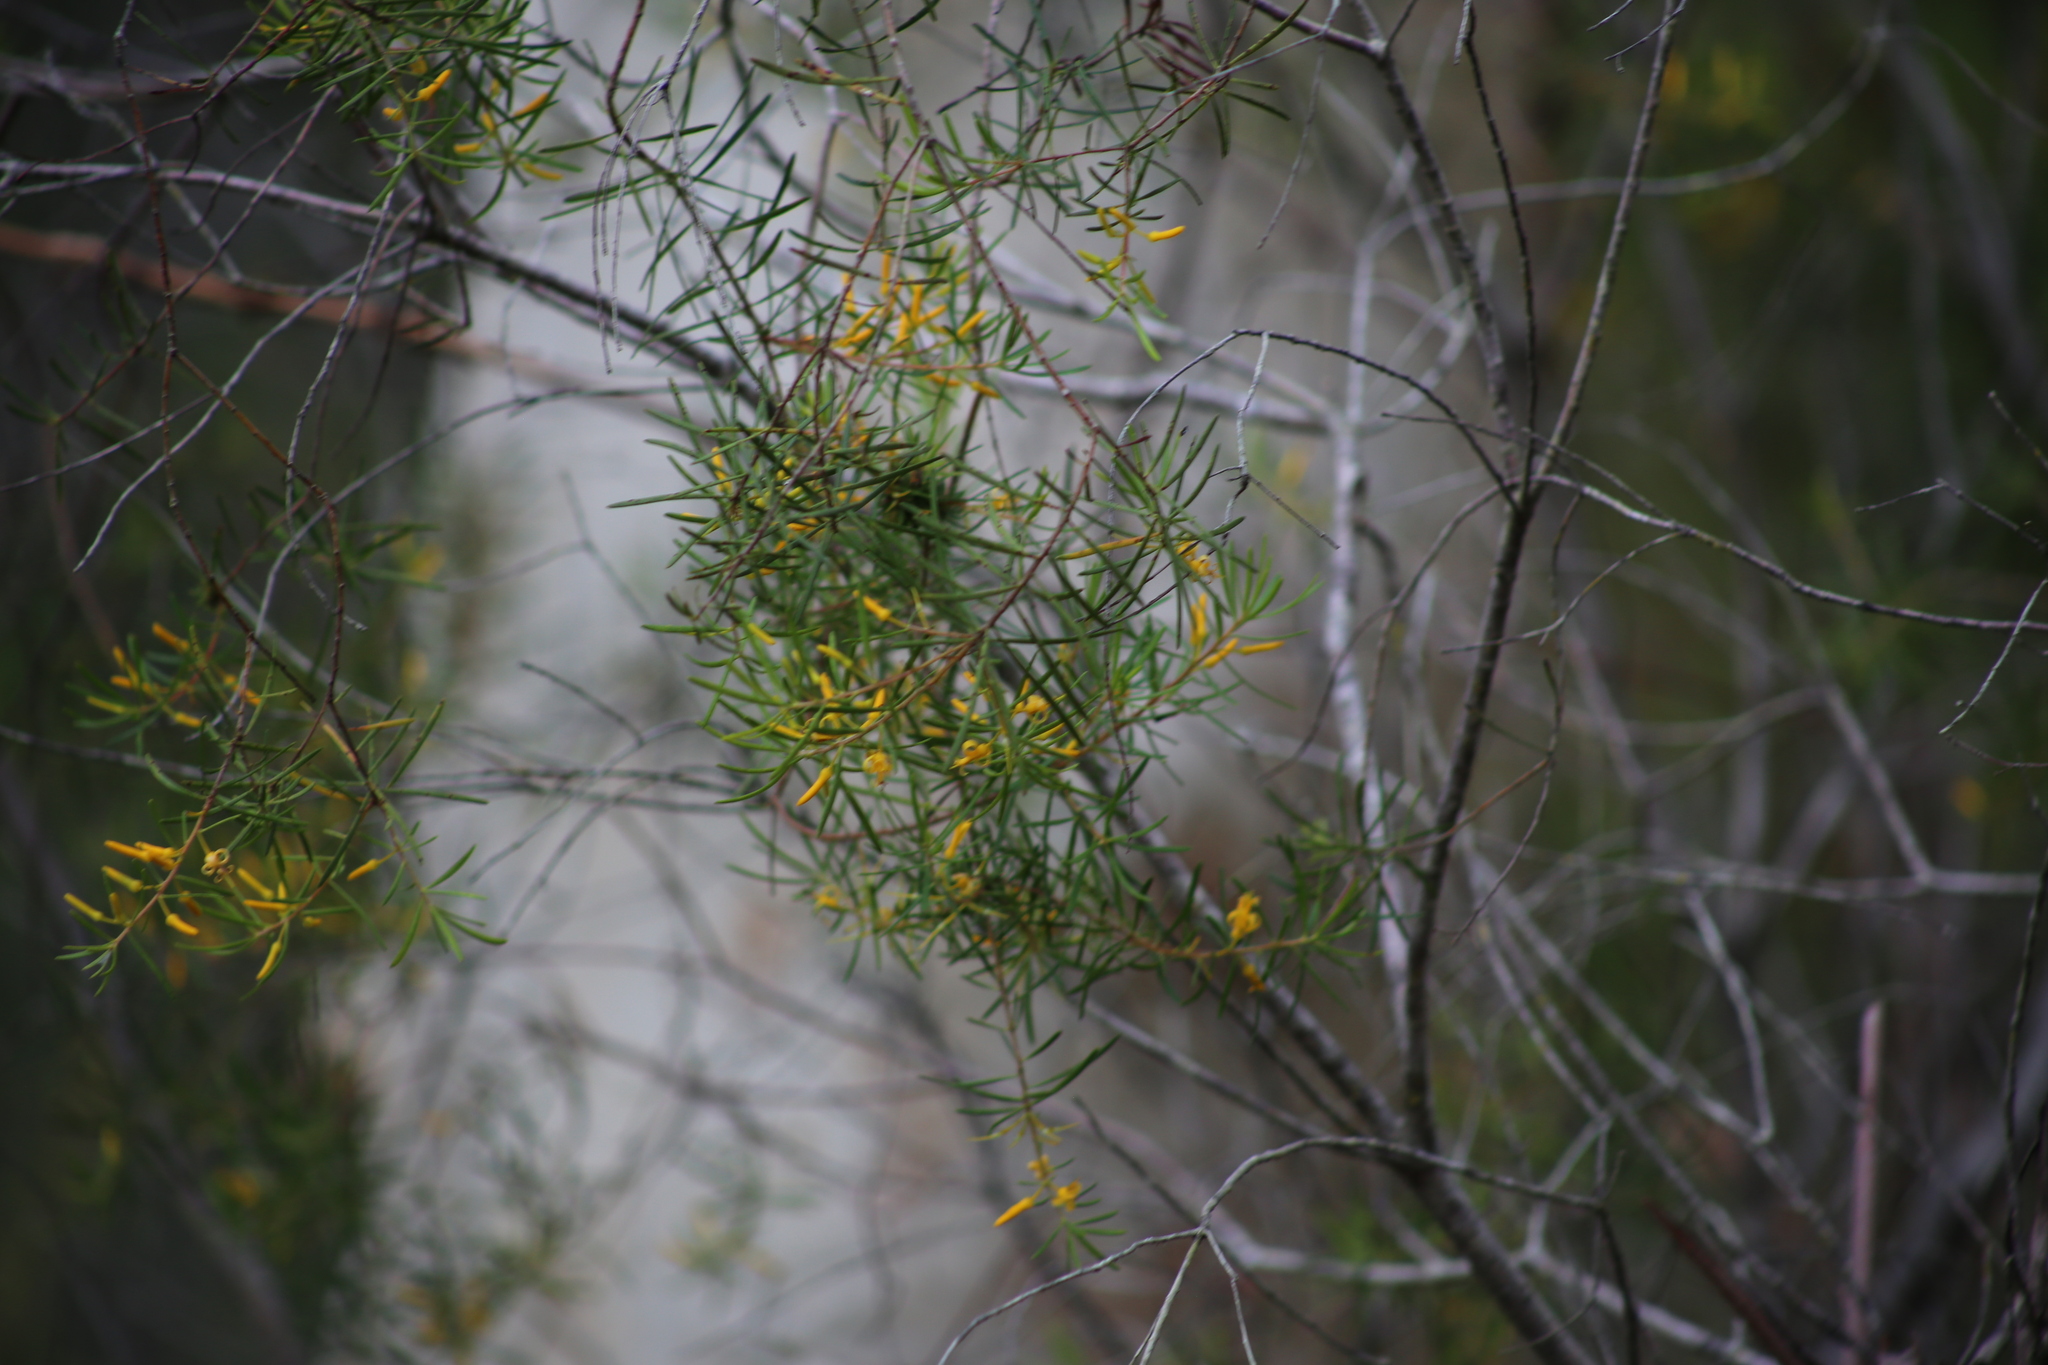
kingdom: Plantae
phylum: Tracheophyta
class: Magnoliopsida
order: Proteales
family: Proteaceae
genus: Persoonia
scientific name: Persoonia virgata
